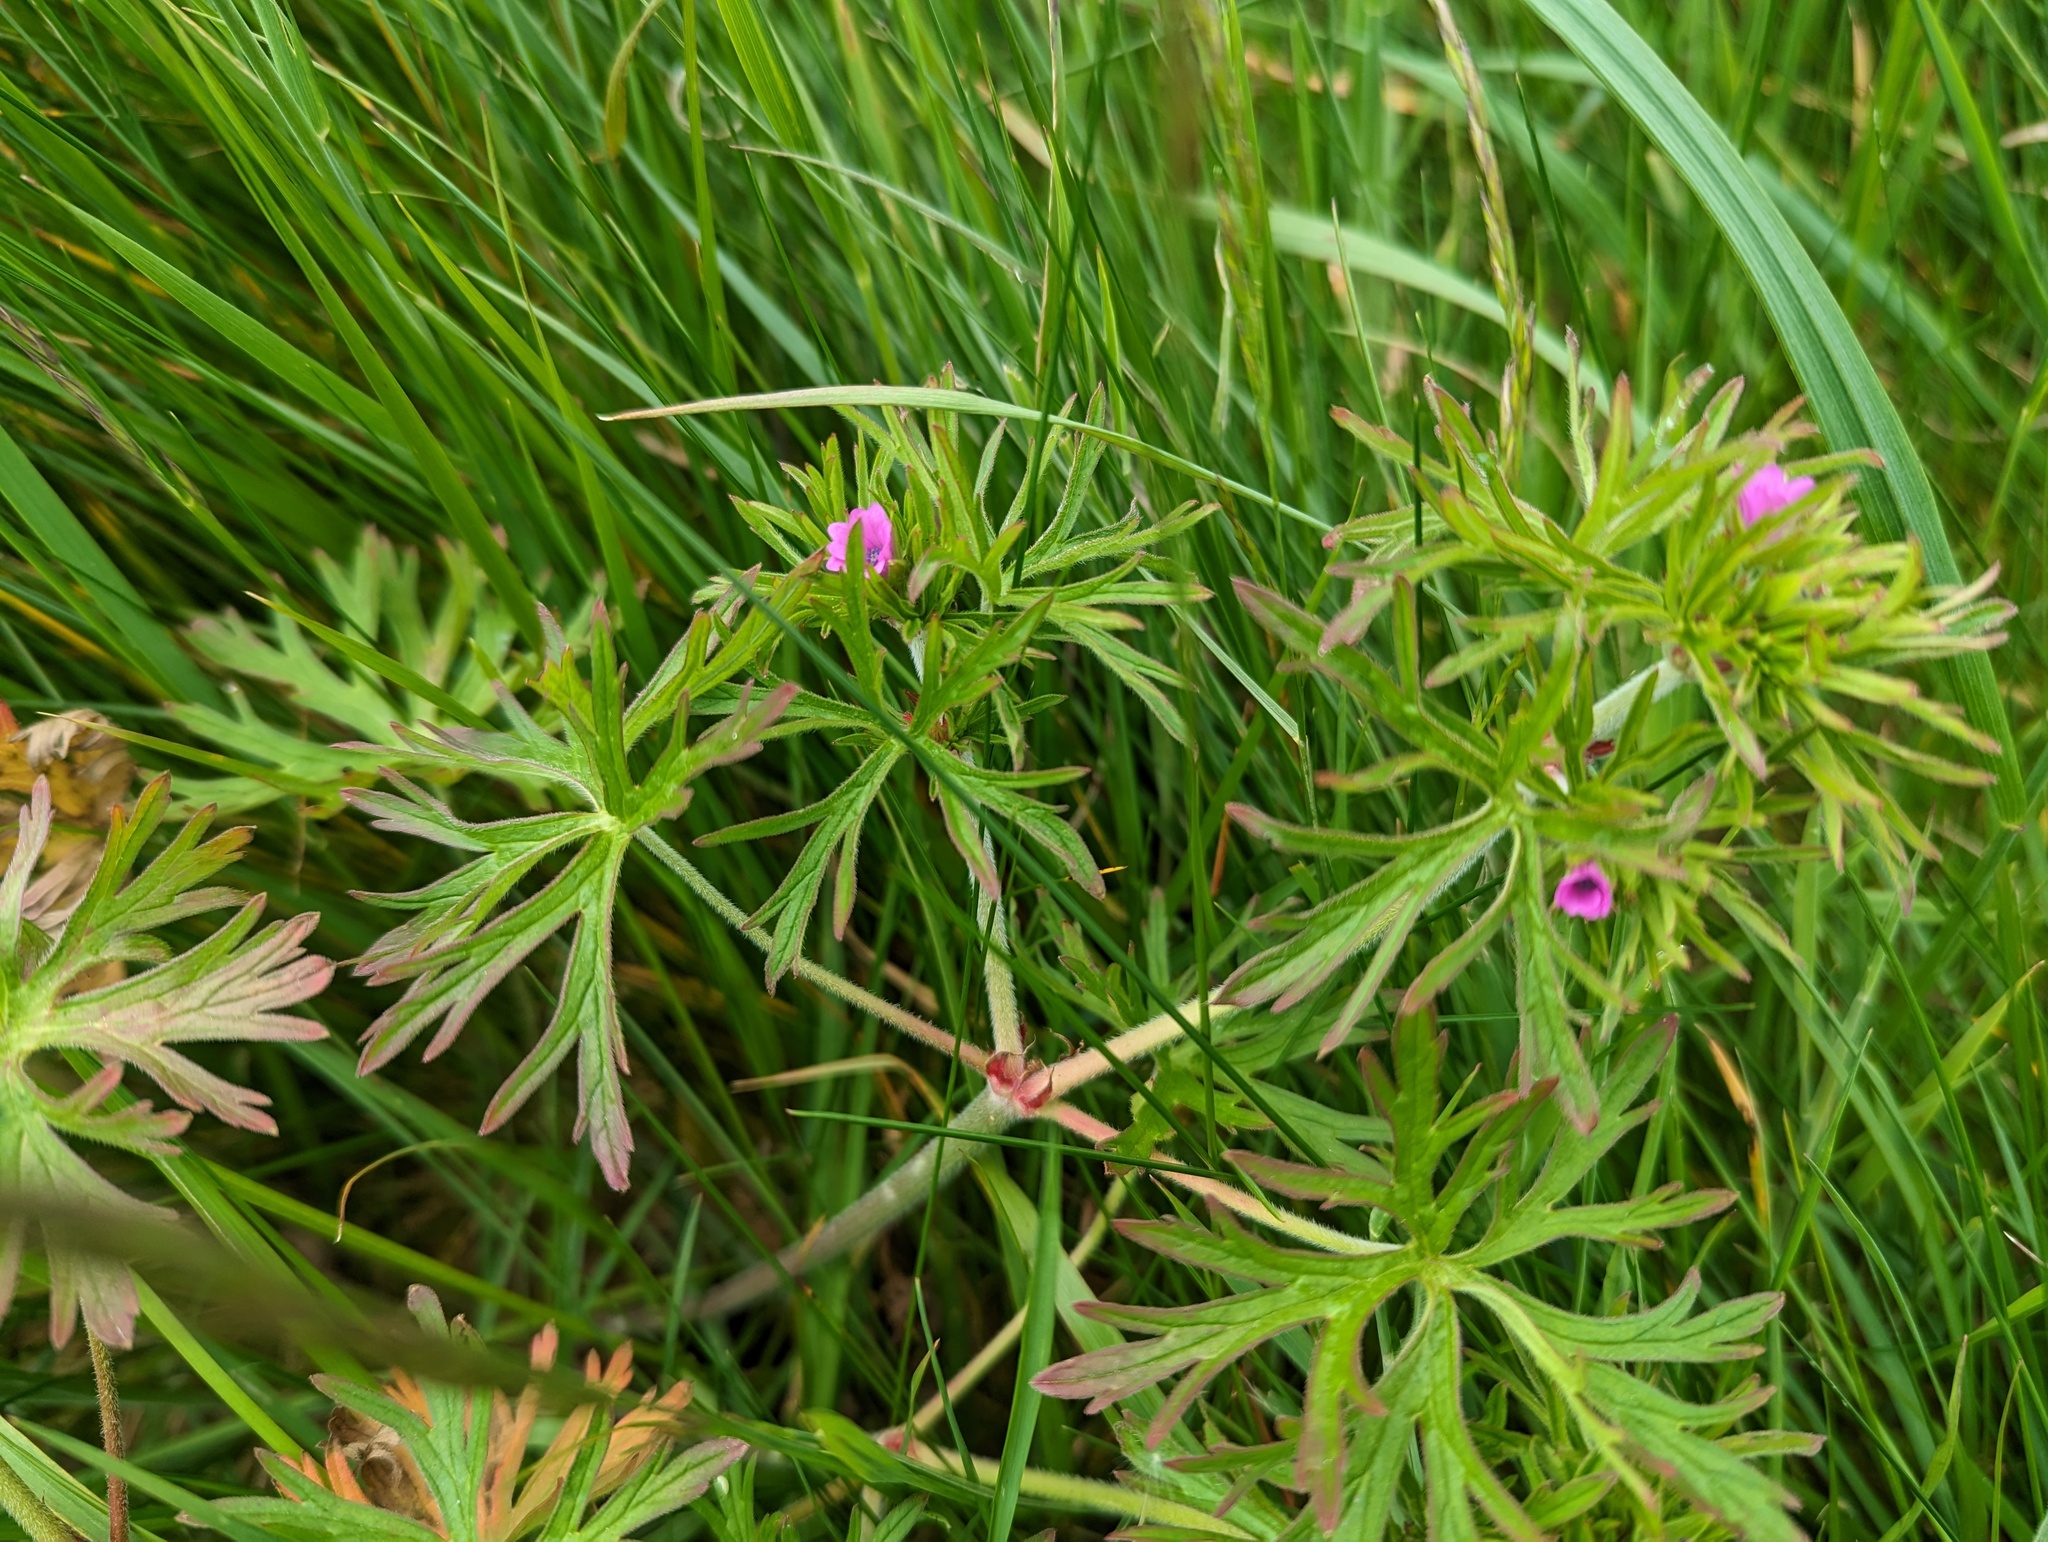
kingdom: Plantae
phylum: Tracheophyta
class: Magnoliopsida
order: Geraniales
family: Geraniaceae
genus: Geranium
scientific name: Geranium dissectum
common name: Cut-leaved crane's-bill
